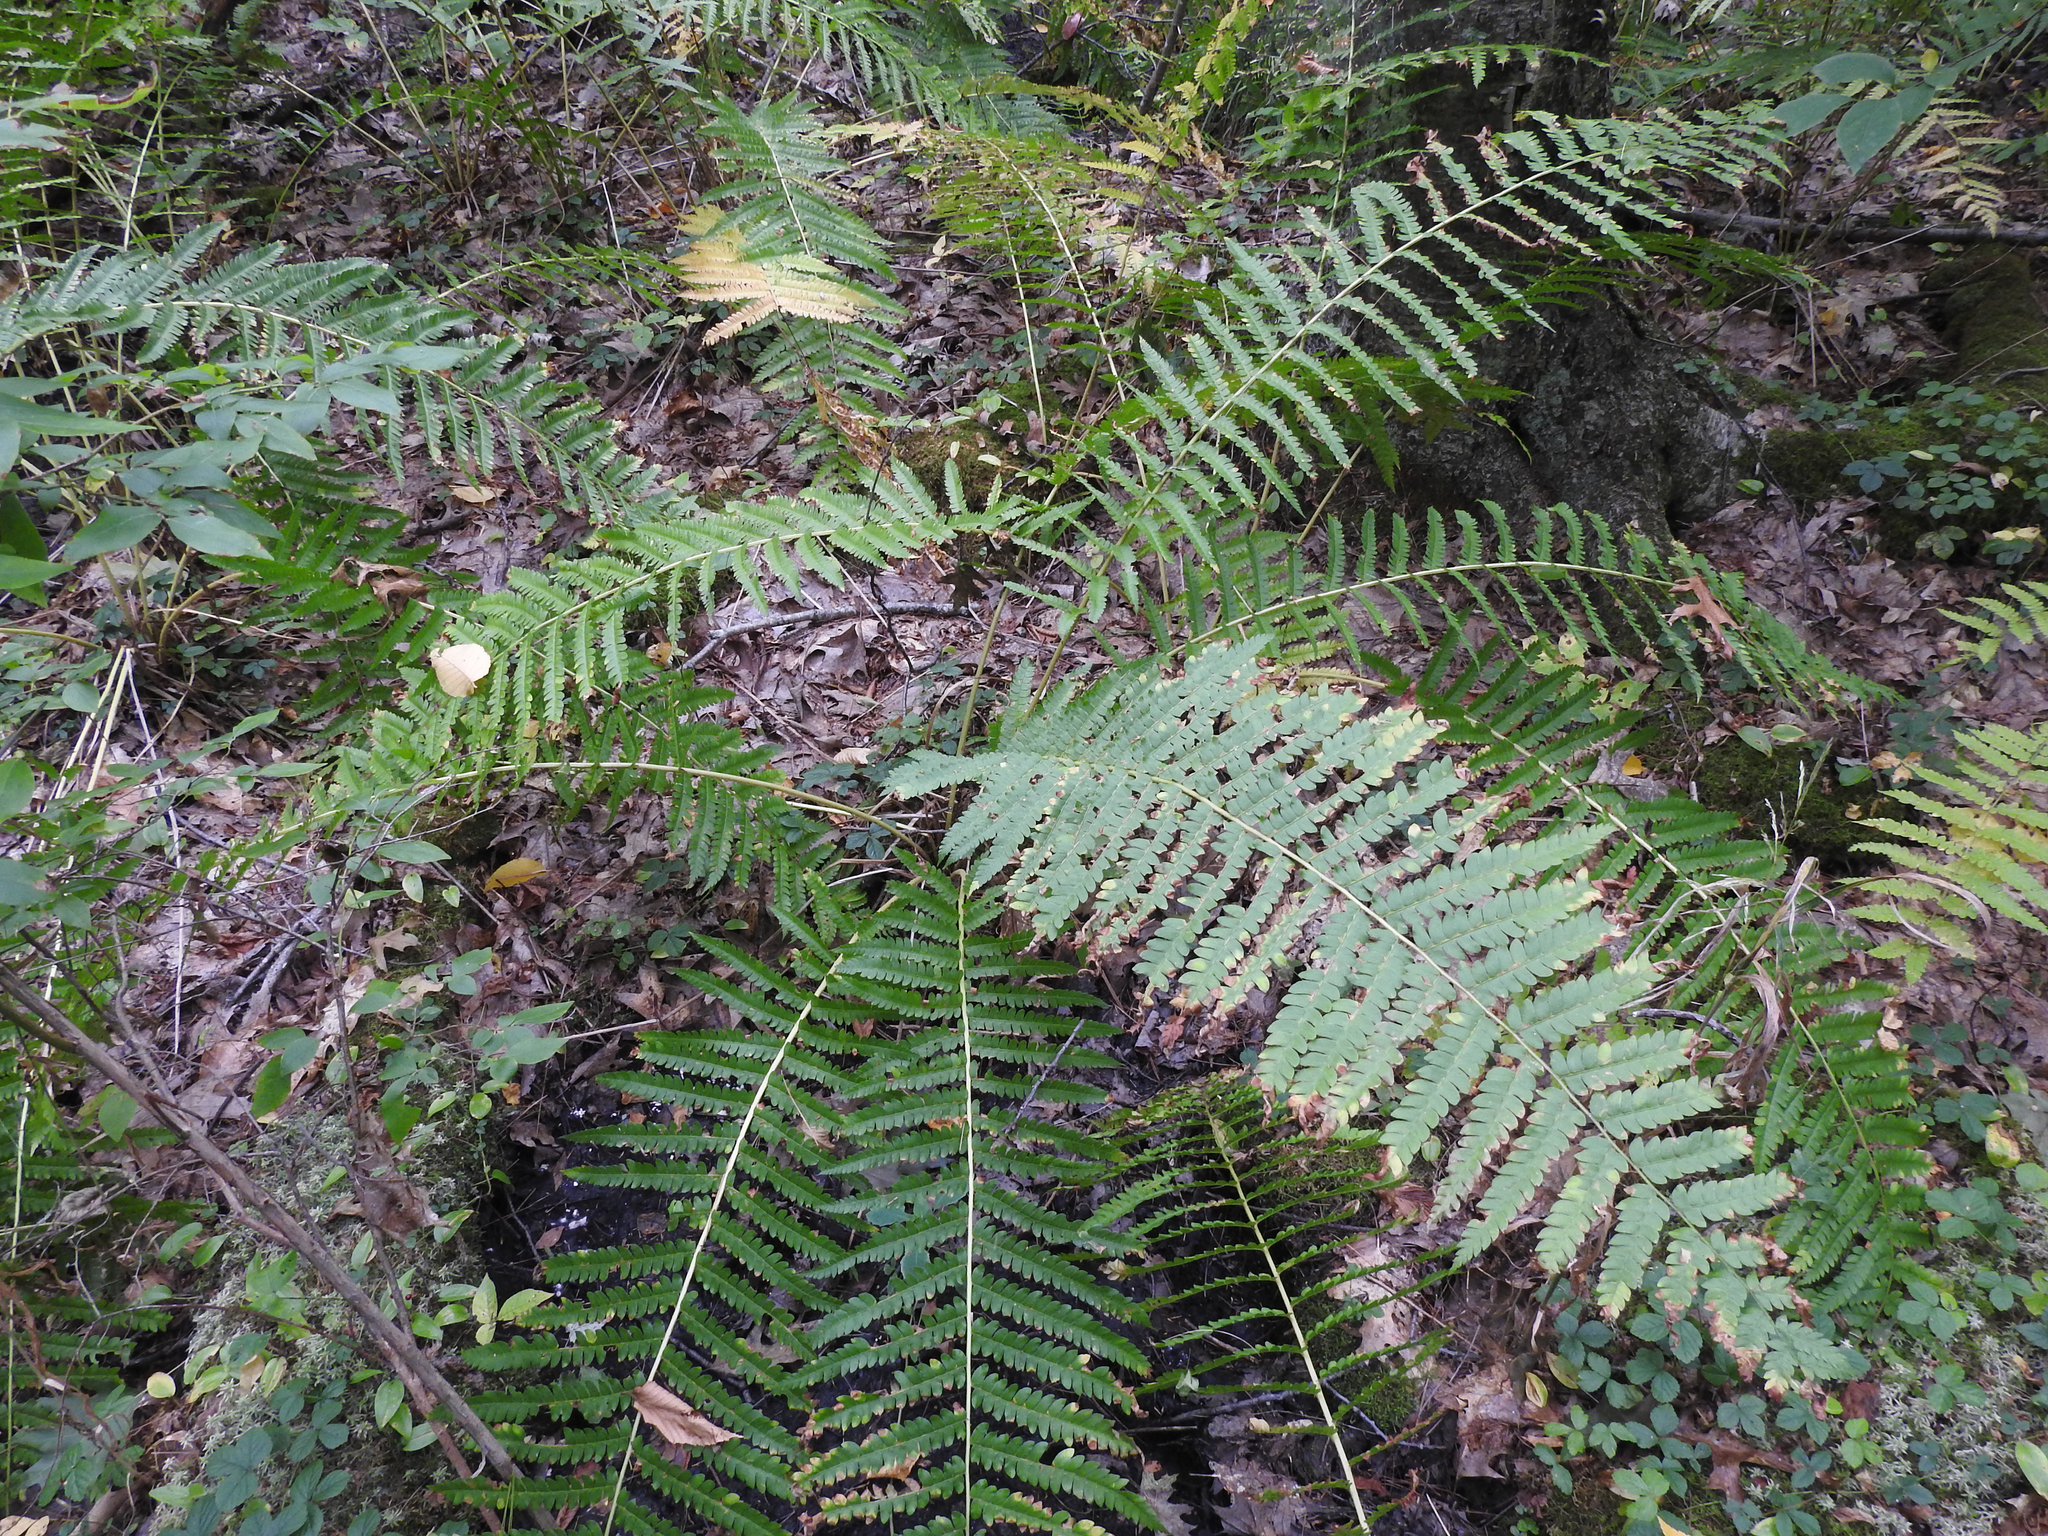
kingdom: Plantae
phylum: Tracheophyta
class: Polypodiopsida
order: Osmundales
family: Osmundaceae
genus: Osmundastrum
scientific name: Osmundastrum cinnamomeum
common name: Cinnamon fern
